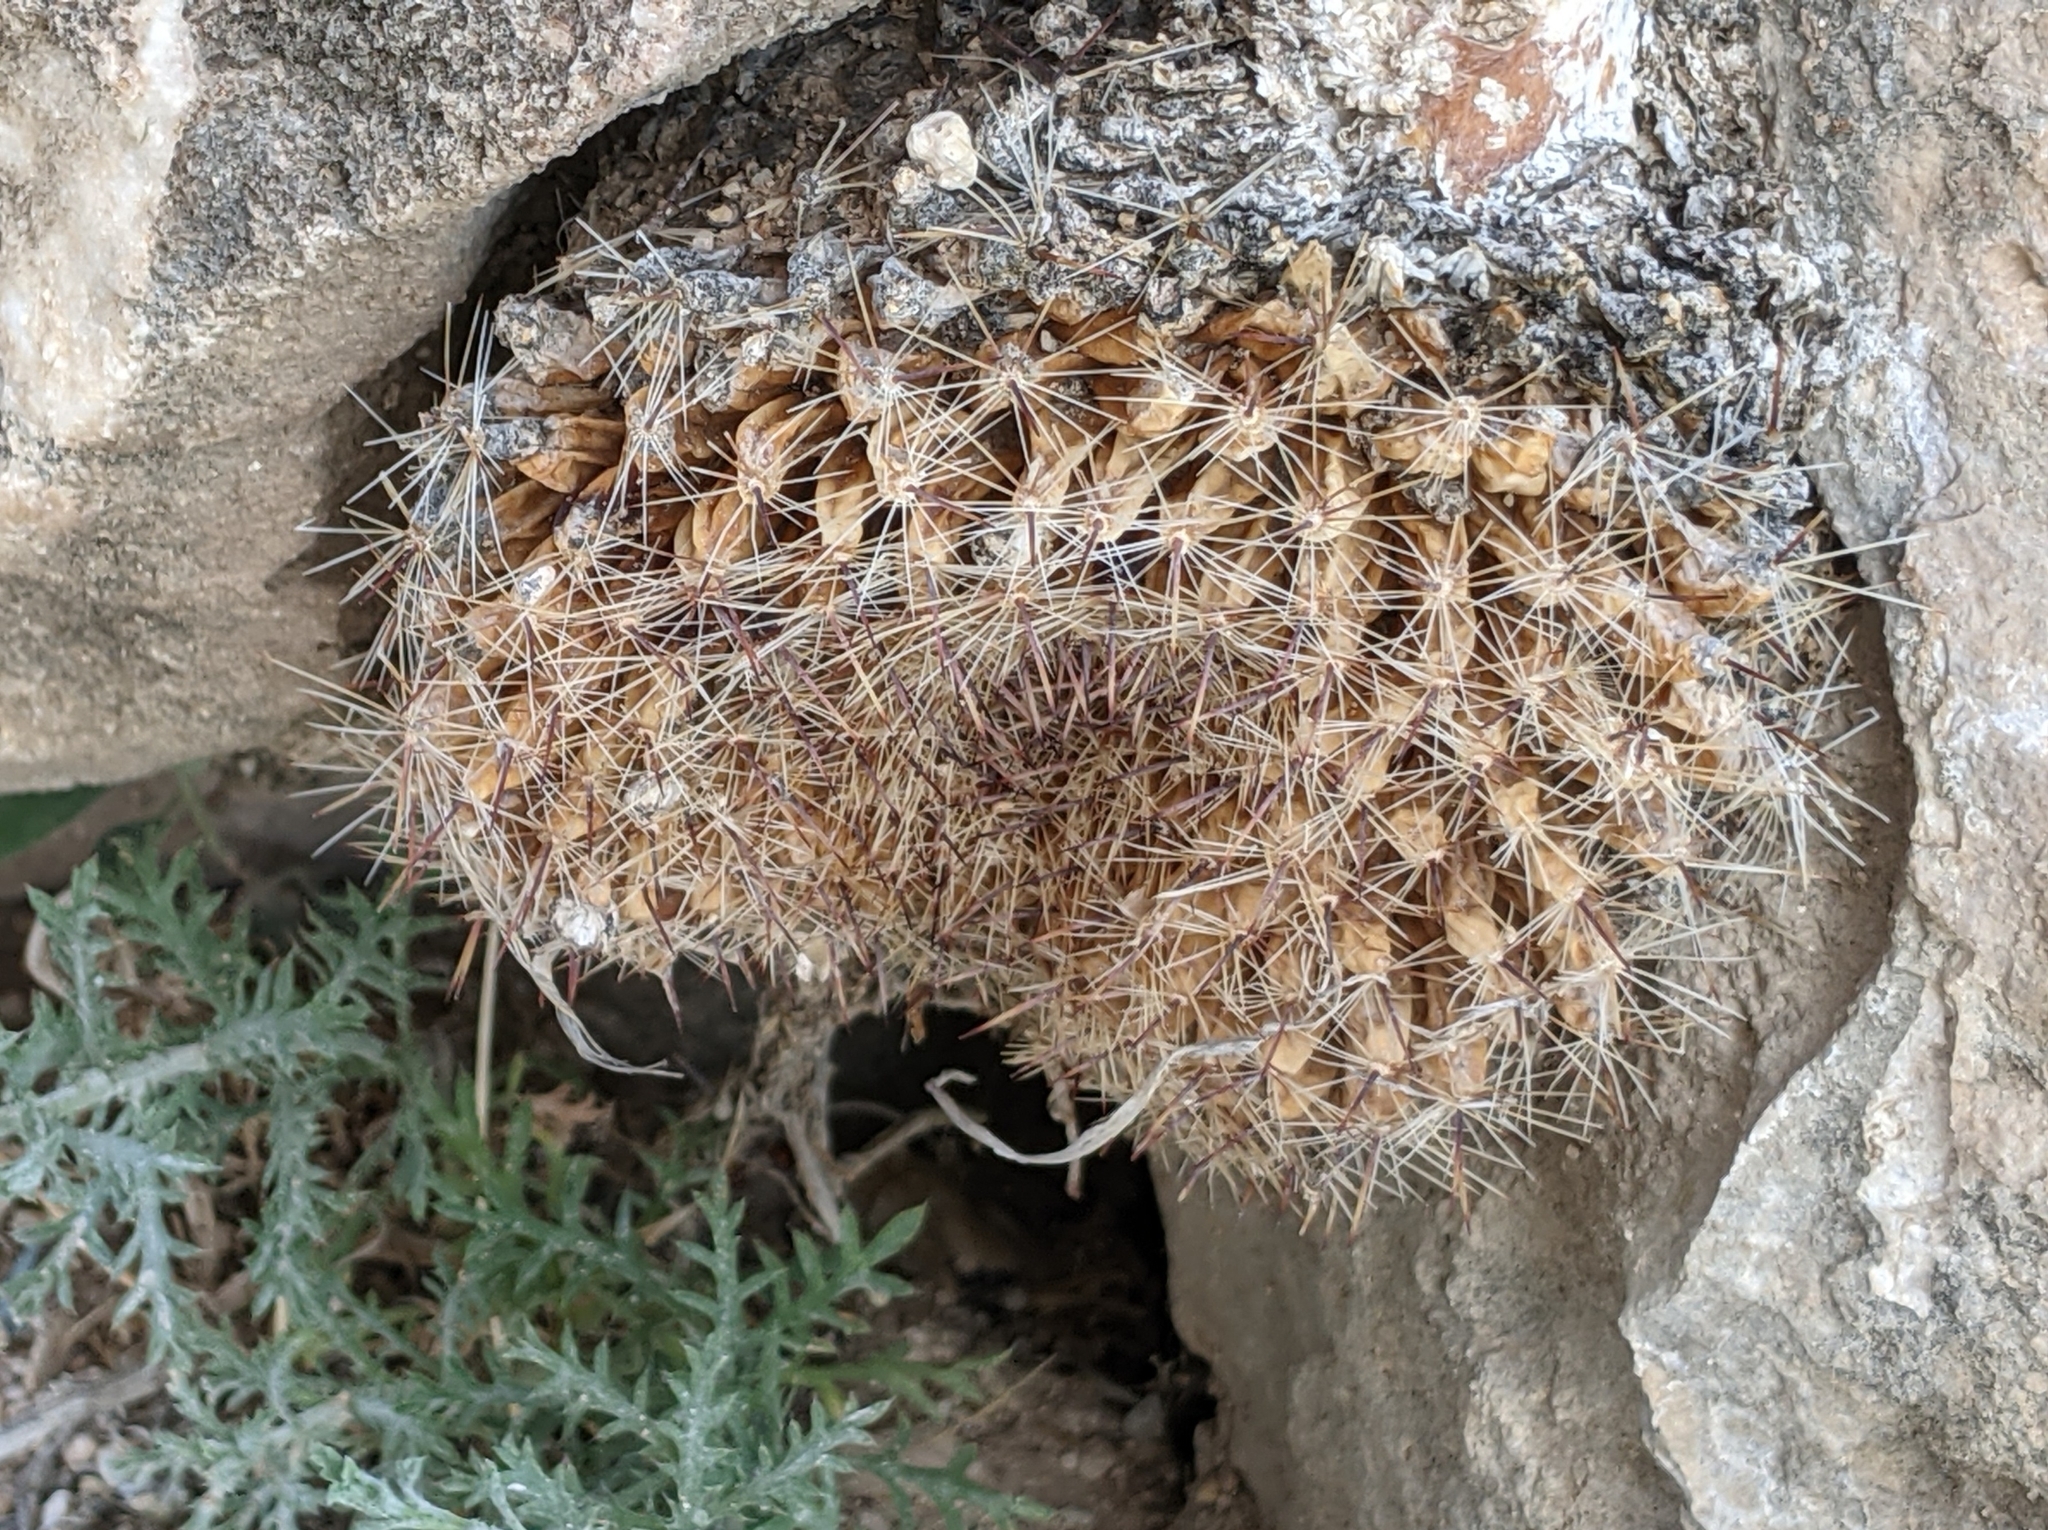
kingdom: Plantae
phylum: Tracheophyta
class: Magnoliopsida
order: Caryophyllales
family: Cactaceae
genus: Mammillaria
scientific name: Mammillaria heyderi
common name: Little nipple cactus
